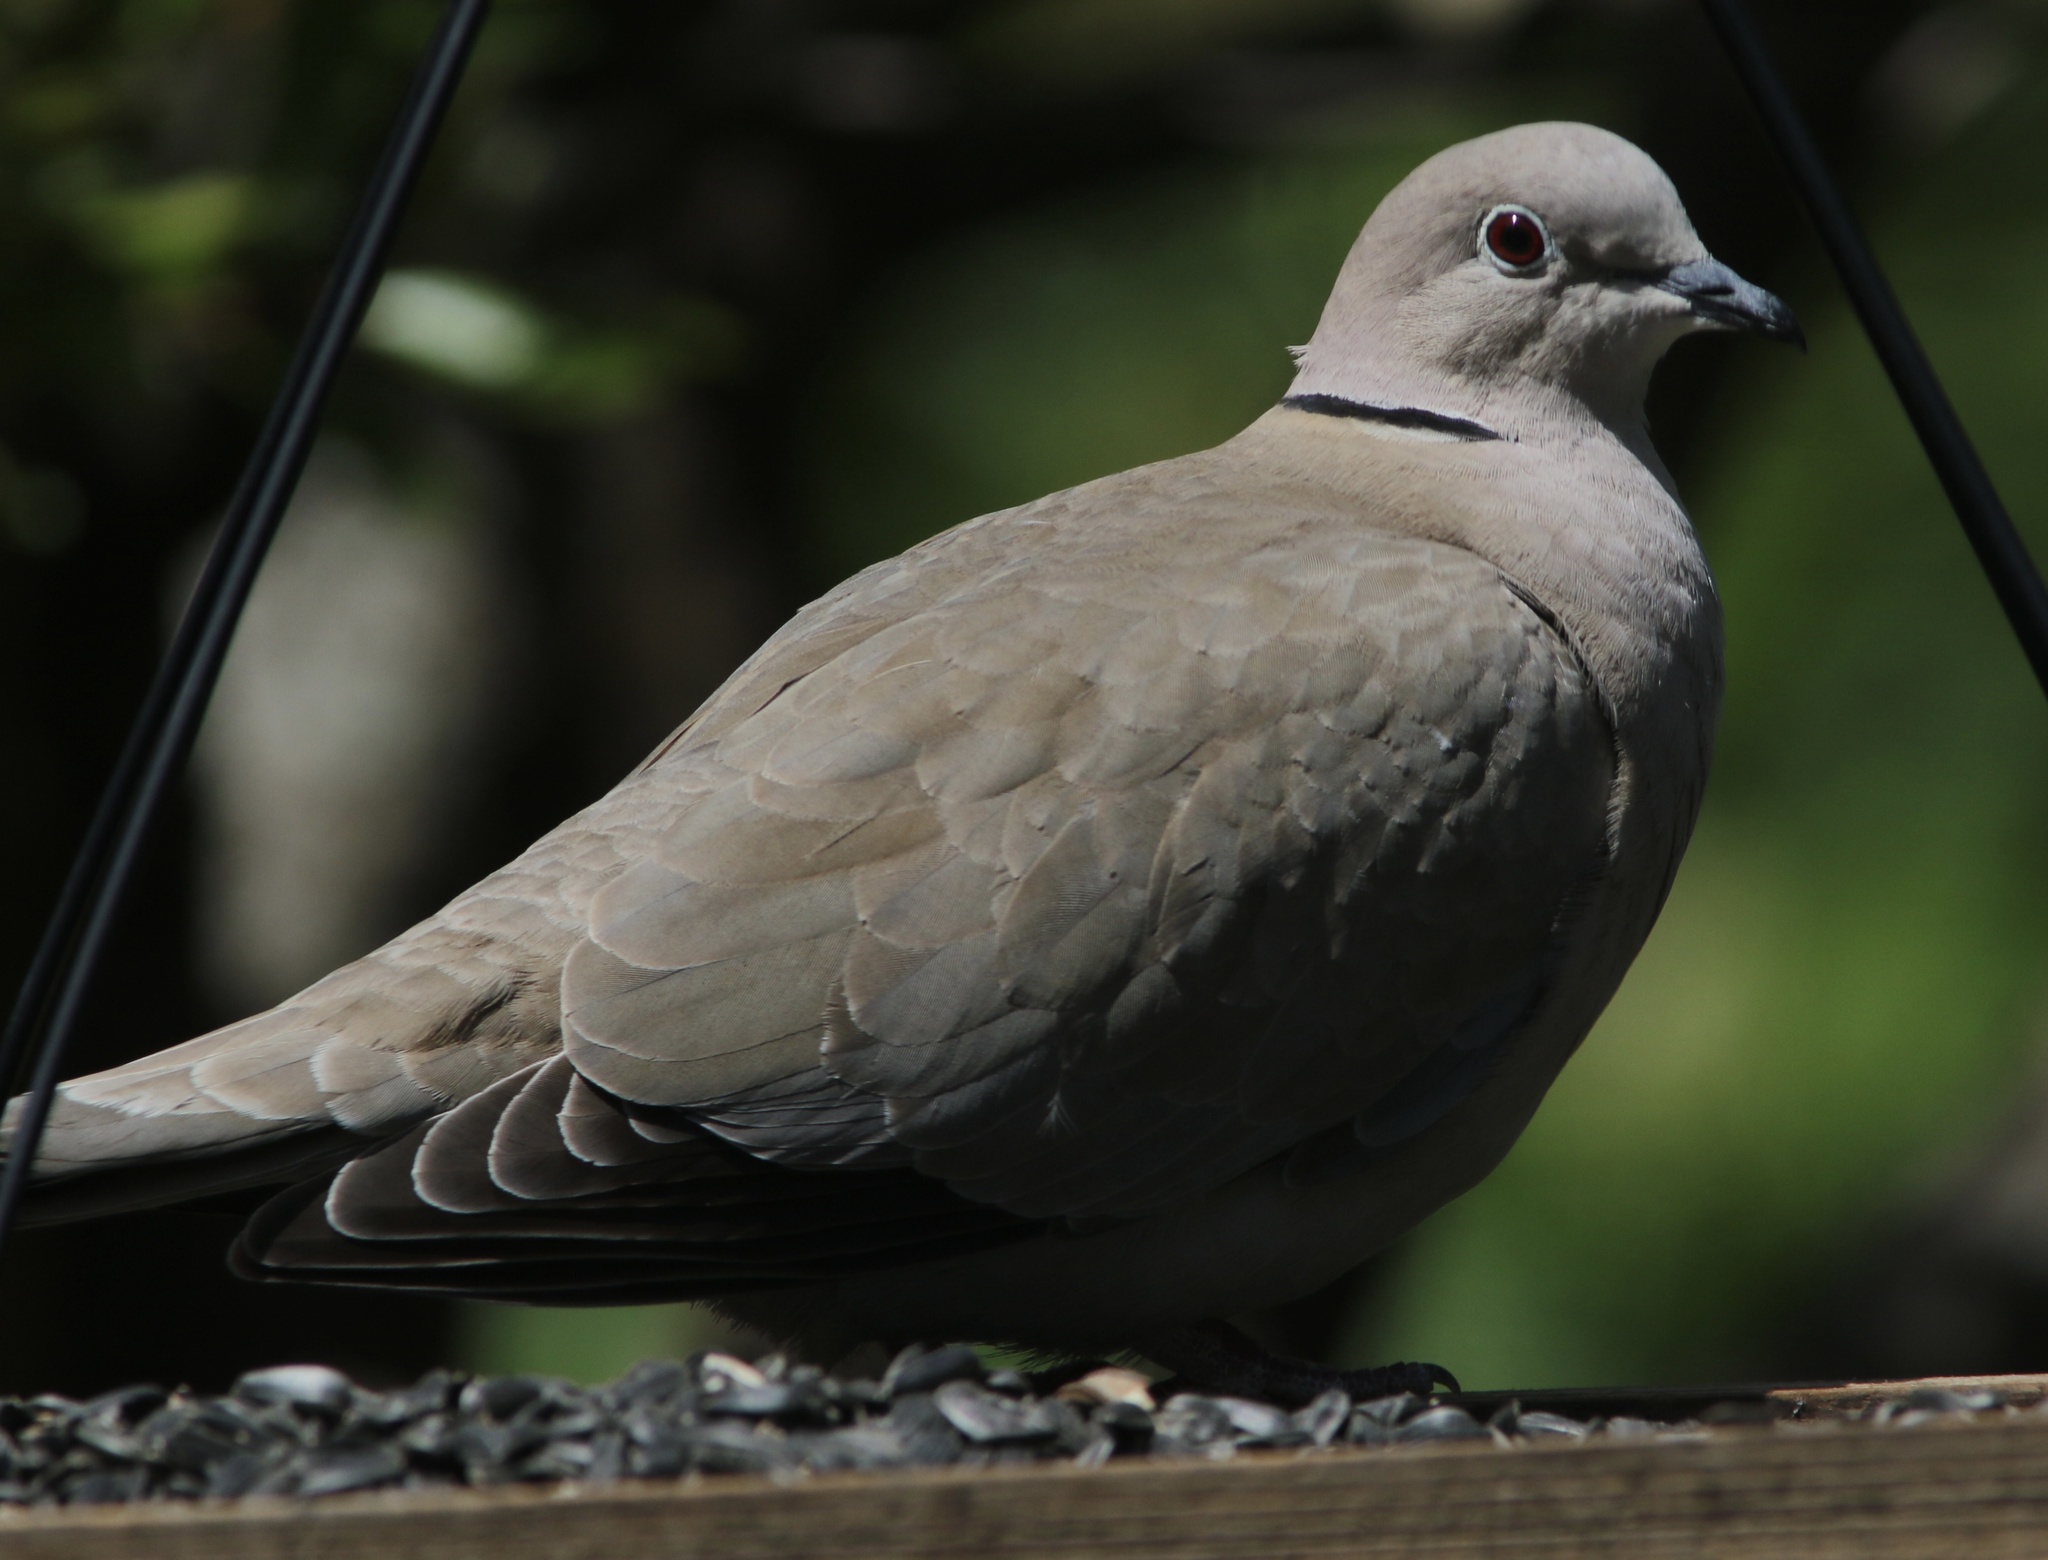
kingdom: Animalia
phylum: Chordata
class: Aves
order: Columbiformes
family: Columbidae
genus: Streptopelia
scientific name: Streptopelia decaocto
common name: Eurasian collared dove
